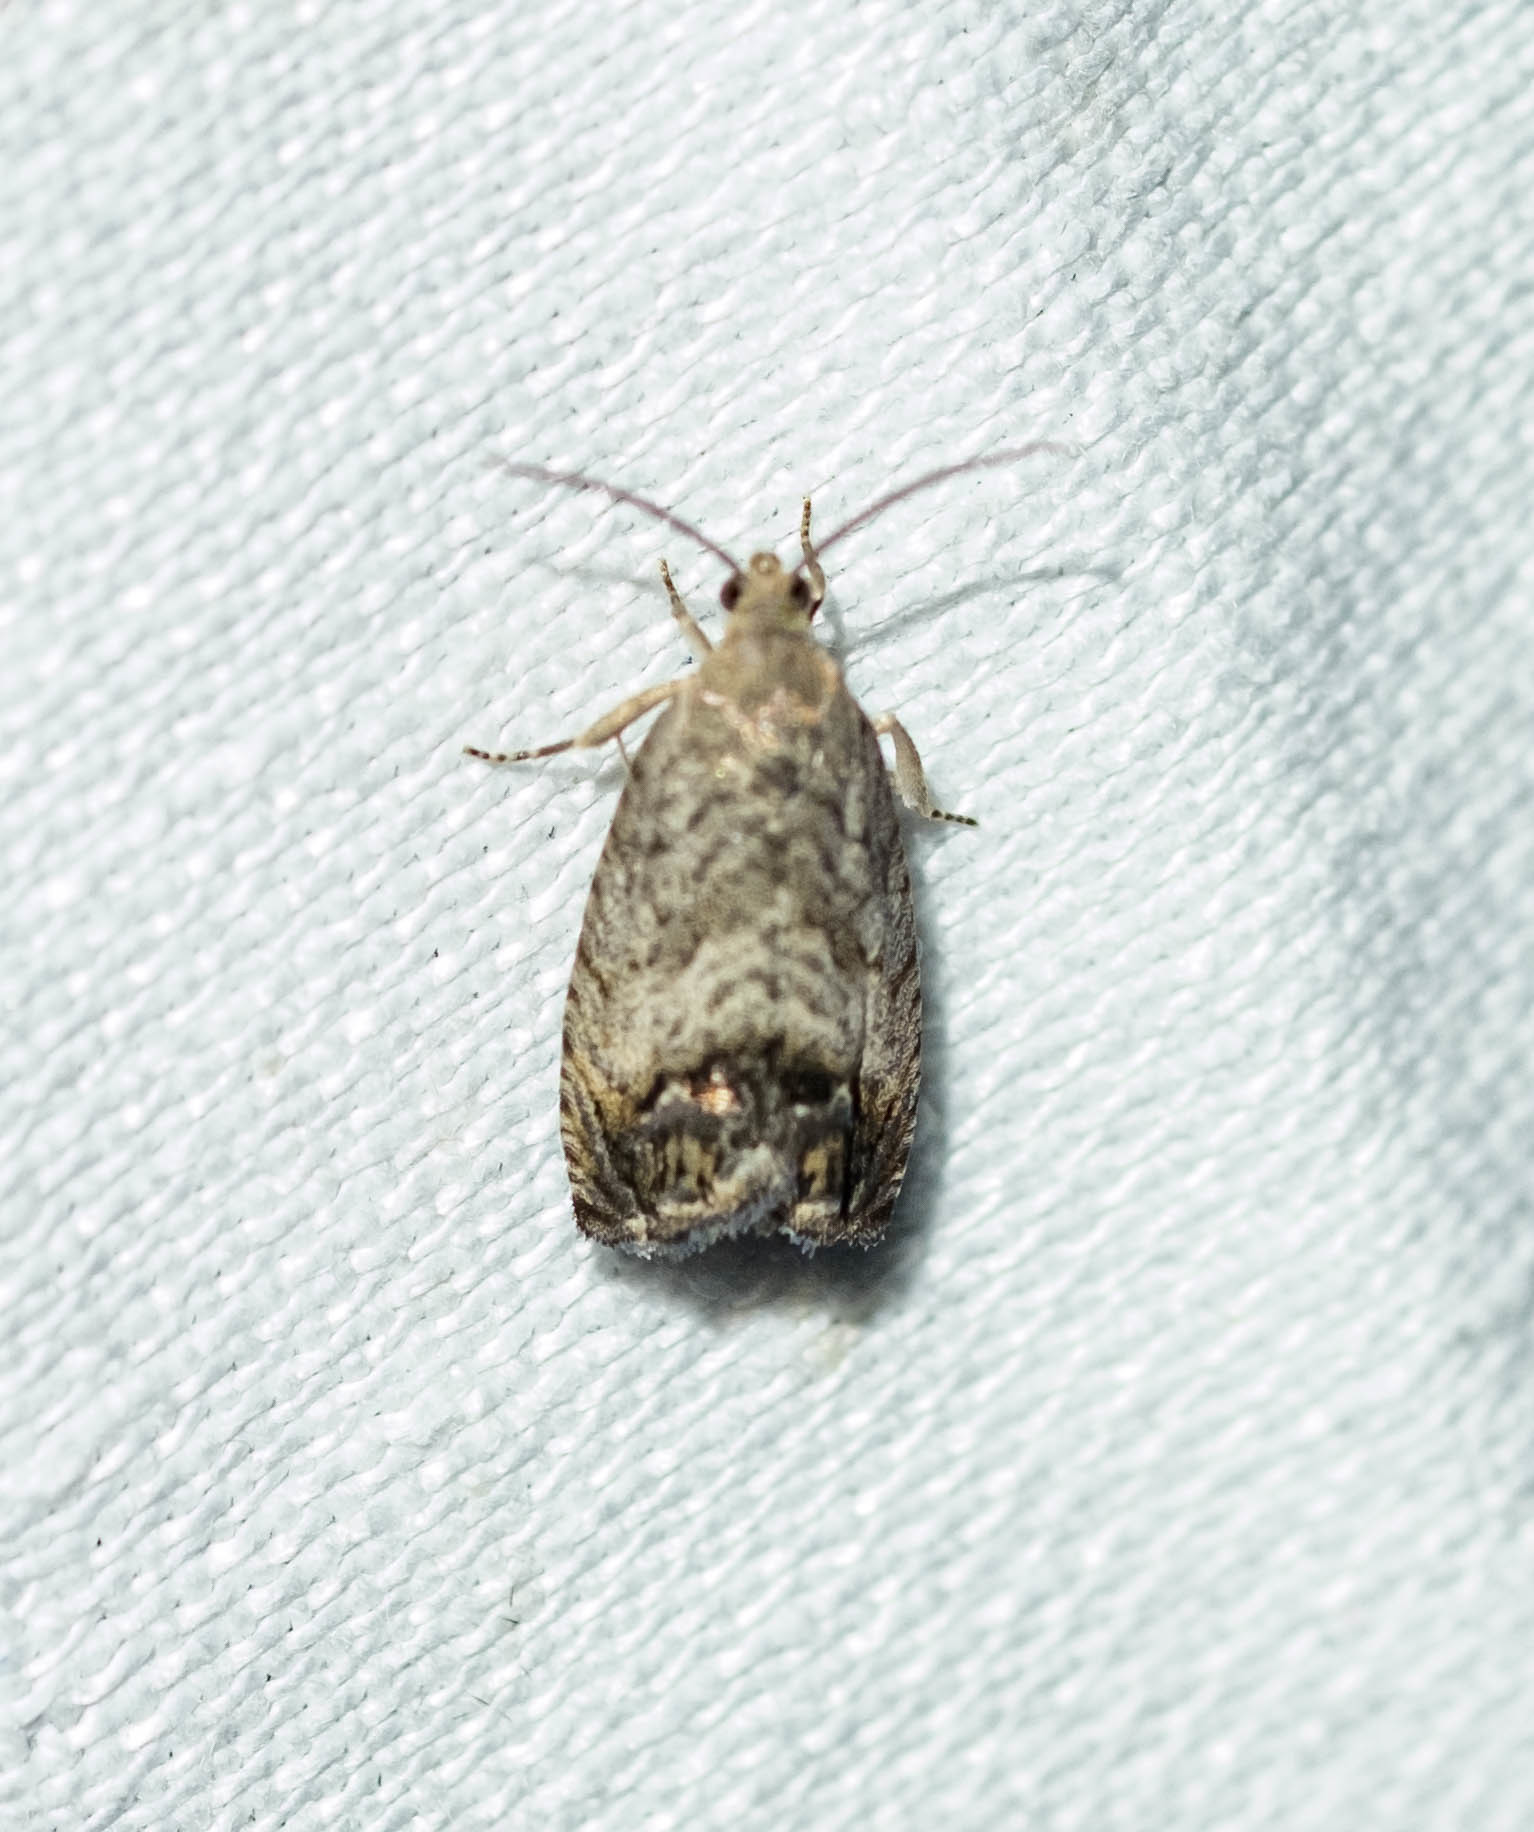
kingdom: Animalia
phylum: Arthropoda
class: Insecta
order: Lepidoptera
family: Tortricidae
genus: Cydia
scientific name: Cydia splendana
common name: De: kastanienwickler, eichenwickler es: oruga de la castaña fr: carpocapse des châtaignes it: cidia o tortrice tardiva delle castagne pt: bichado das castanhas gb: acorn moth, chestnut fruit tortrix
